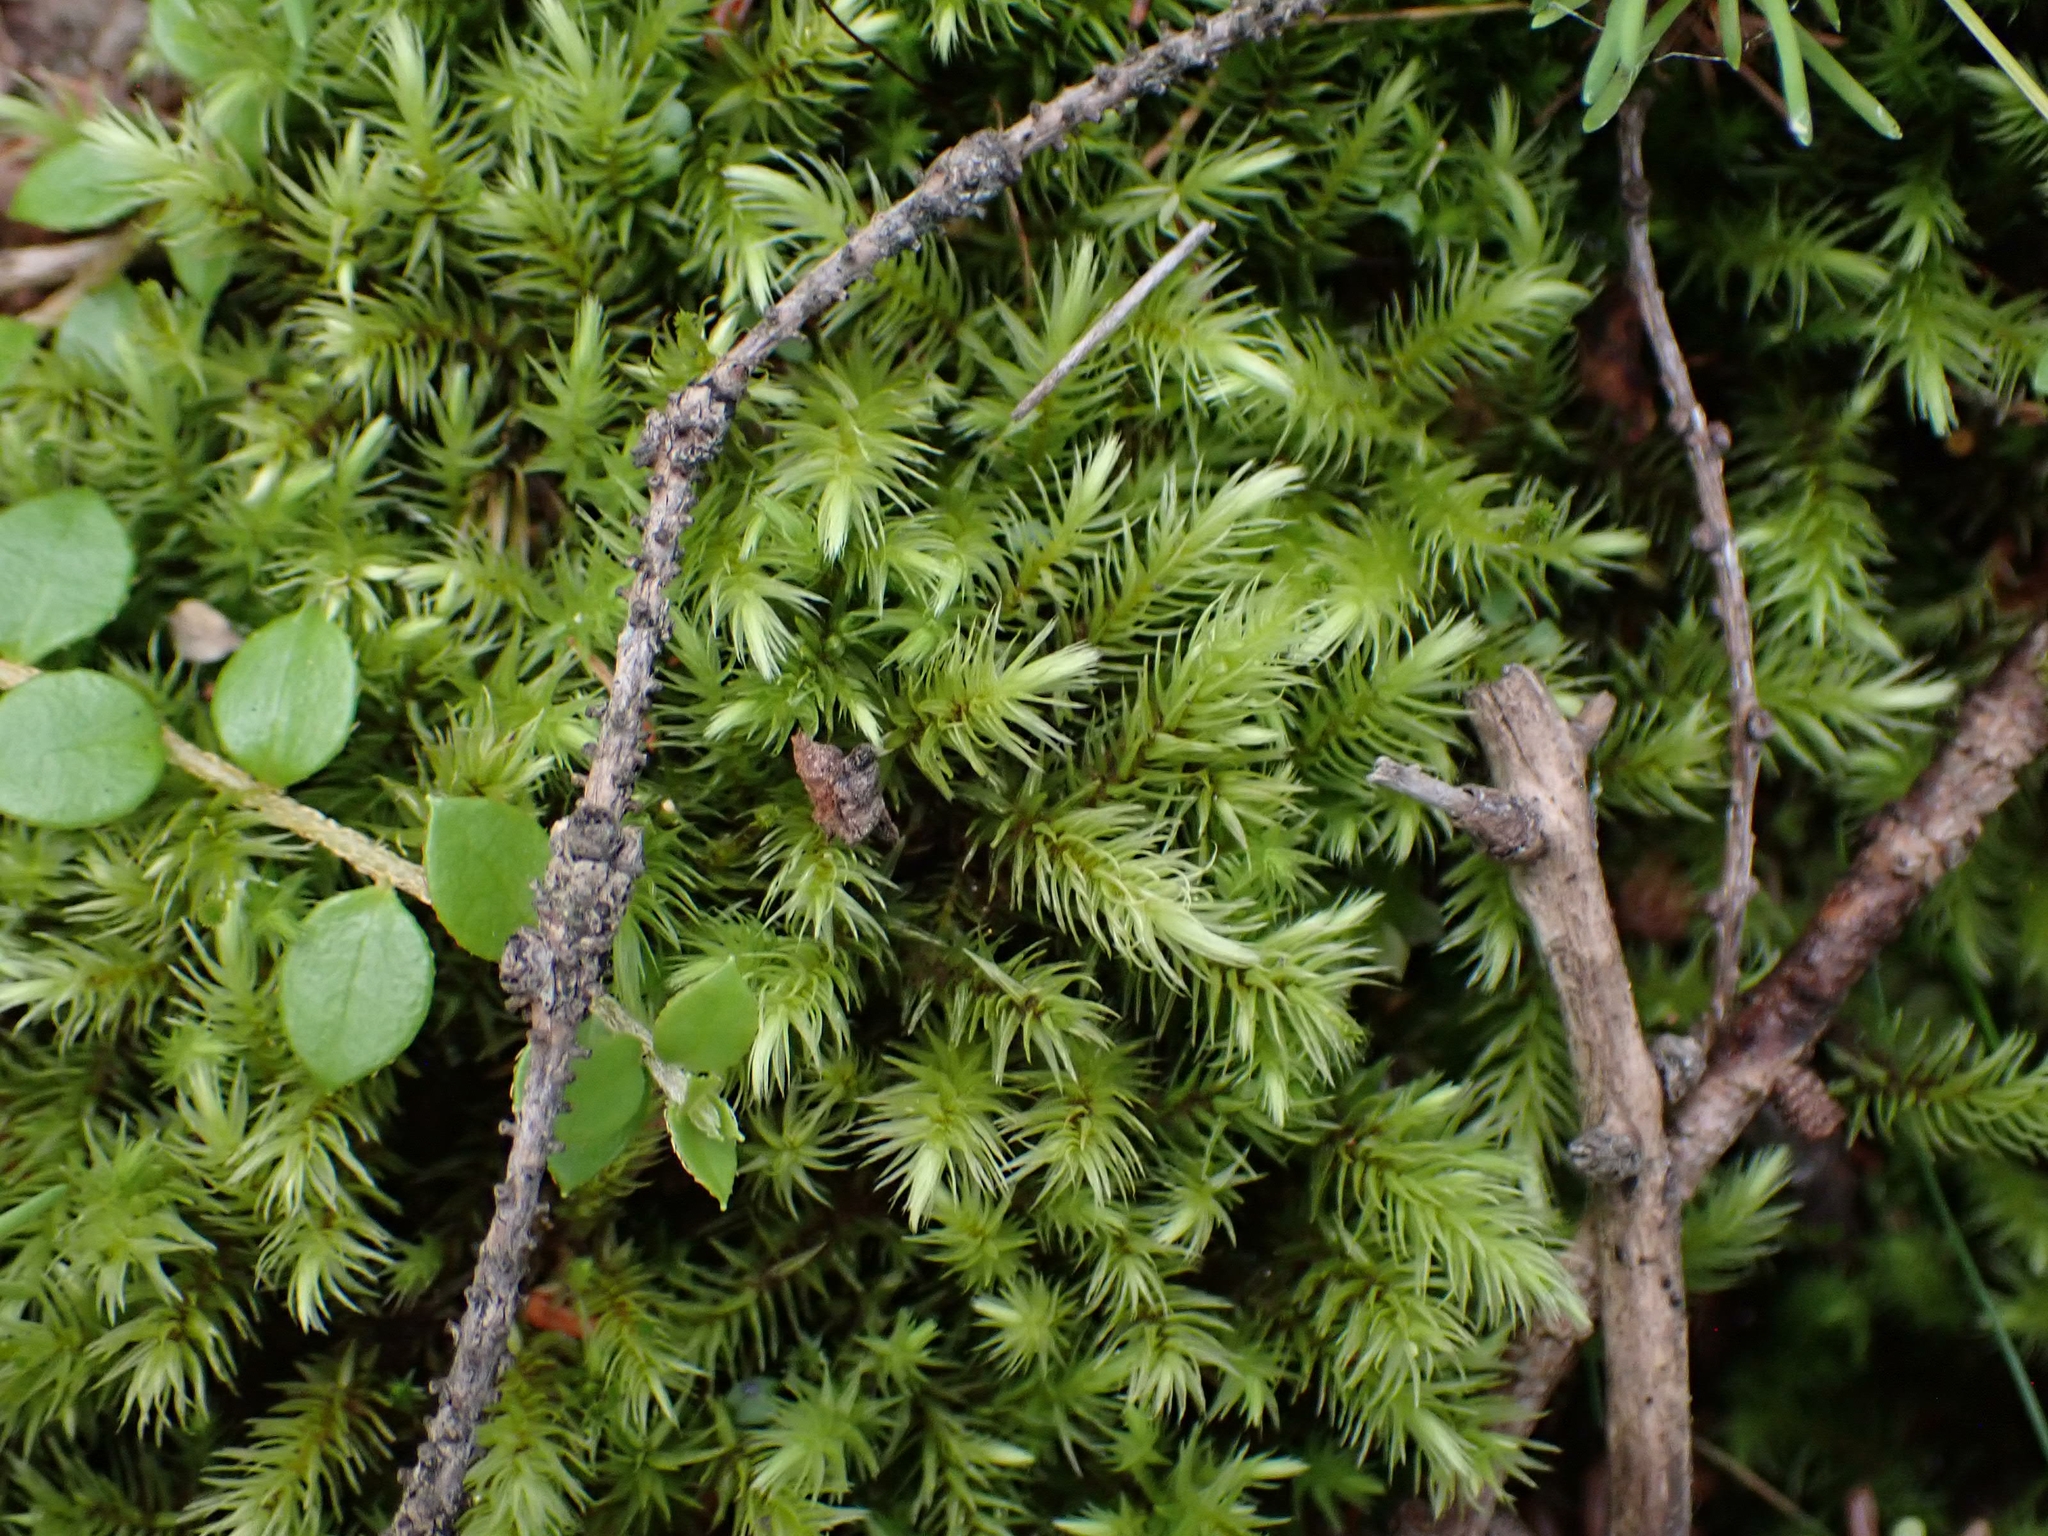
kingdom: Plantae
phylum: Bryophyta
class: Bryopsida
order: Aulacomniales
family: Aulacomniaceae
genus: Aulacomnium
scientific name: Aulacomnium palustre
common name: Bog groove-moss
